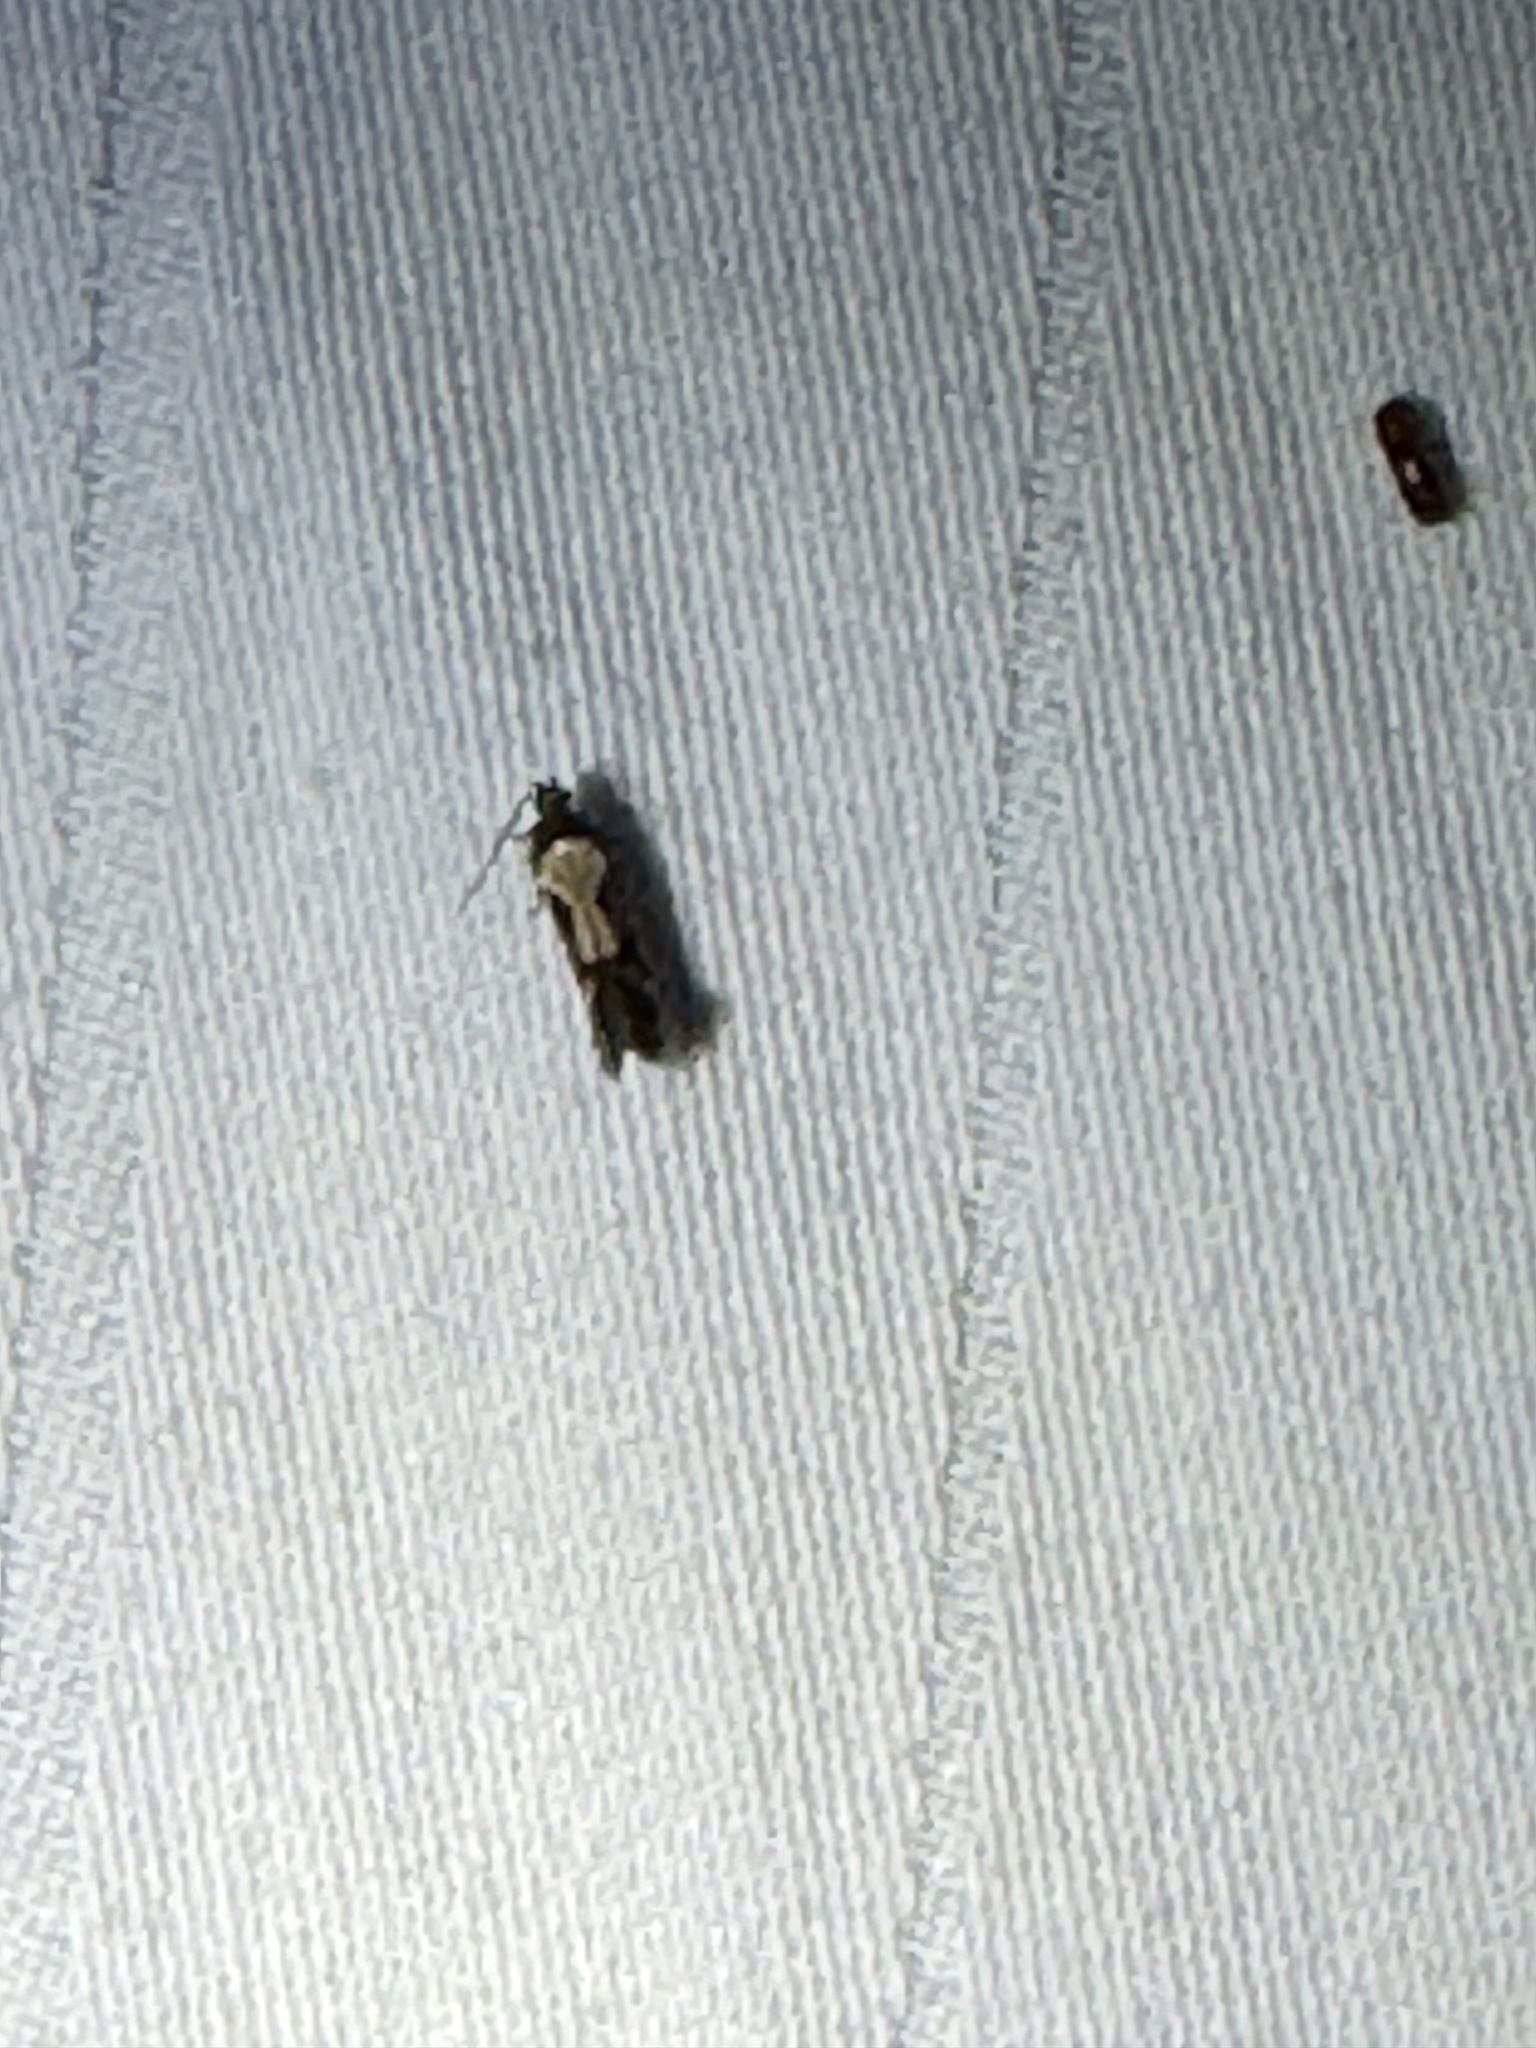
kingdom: Animalia
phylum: Arthropoda
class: Insecta
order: Lepidoptera
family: Gelechiidae
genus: Stegasta
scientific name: Stegasta bosqueella
